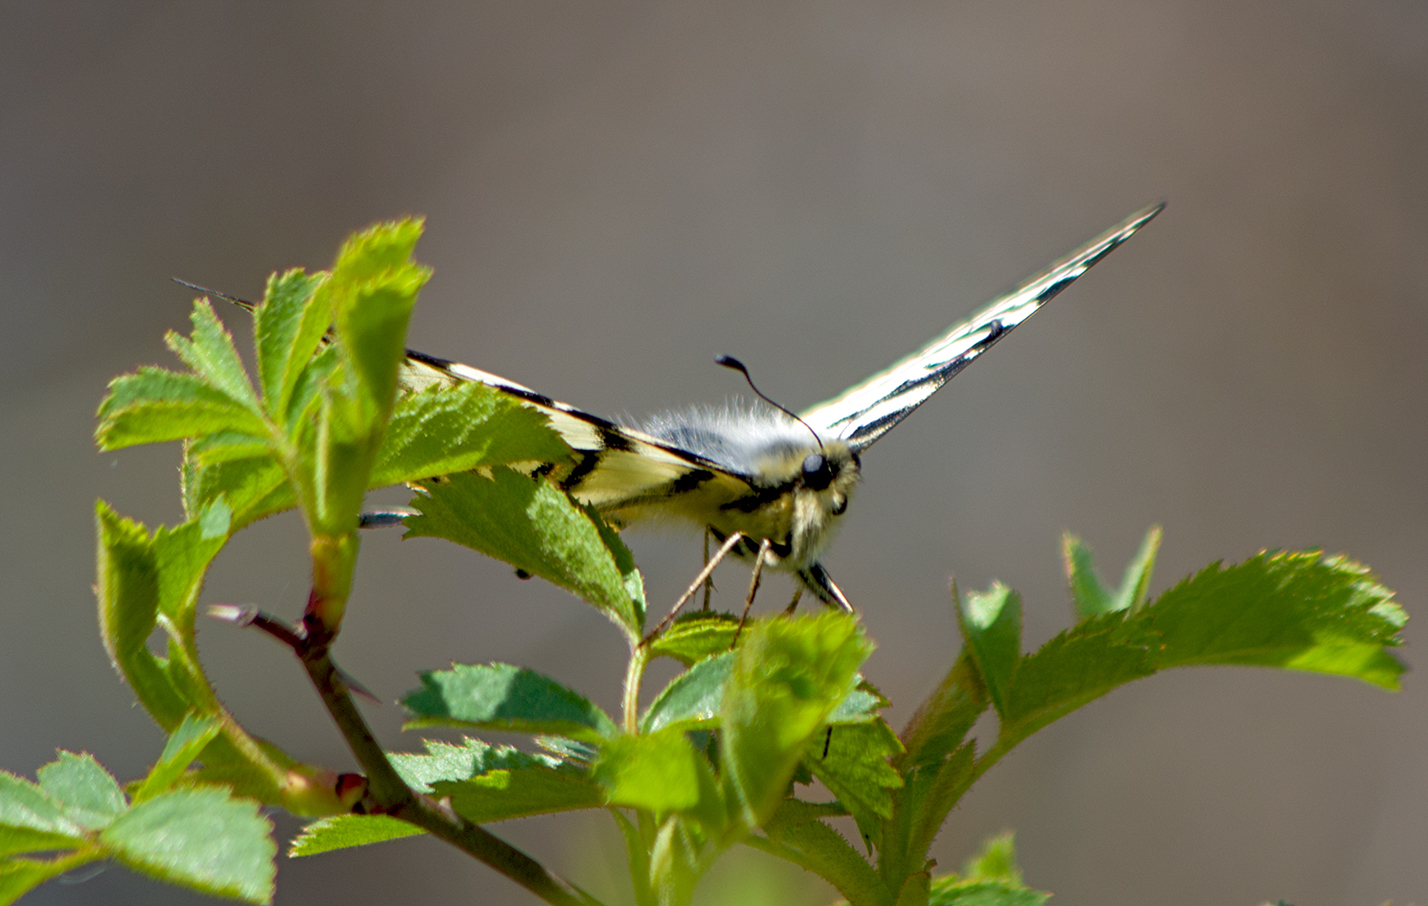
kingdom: Animalia
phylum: Arthropoda
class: Insecta
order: Lepidoptera
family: Papilionidae
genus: Iphiclides
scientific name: Iphiclides podalirius
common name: Scarce swallowtail
